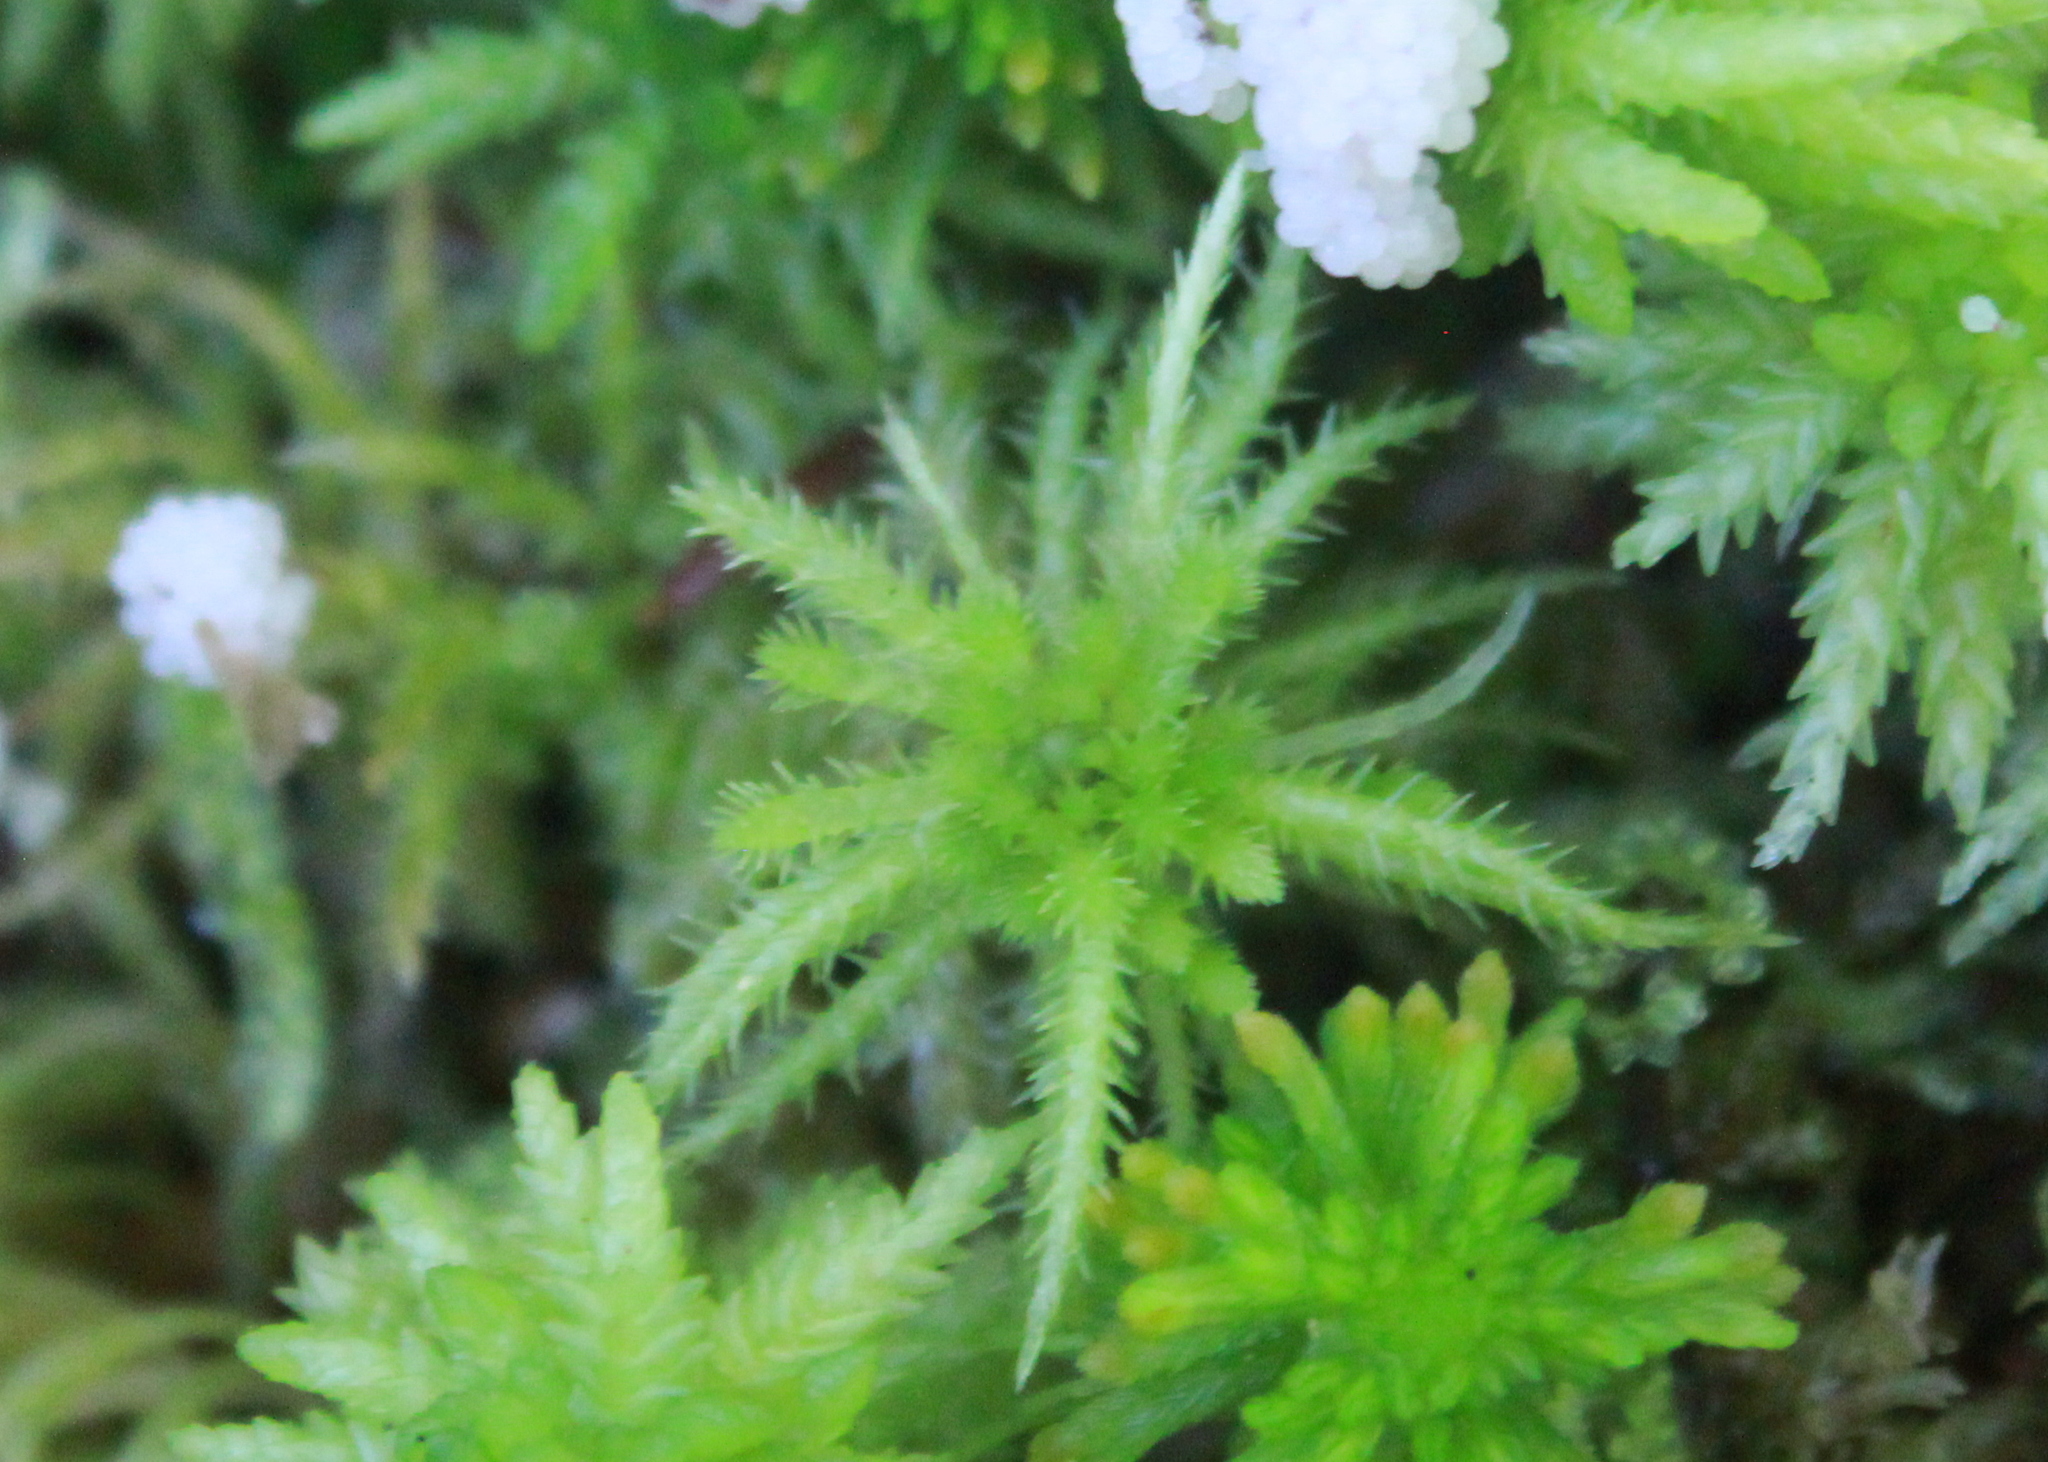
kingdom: Plantae
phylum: Bryophyta
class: Sphagnopsida
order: Sphagnales
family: Sphagnaceae
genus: Sphagnum
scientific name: Sphagnum squarrosum
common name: Shaggy peat moss
